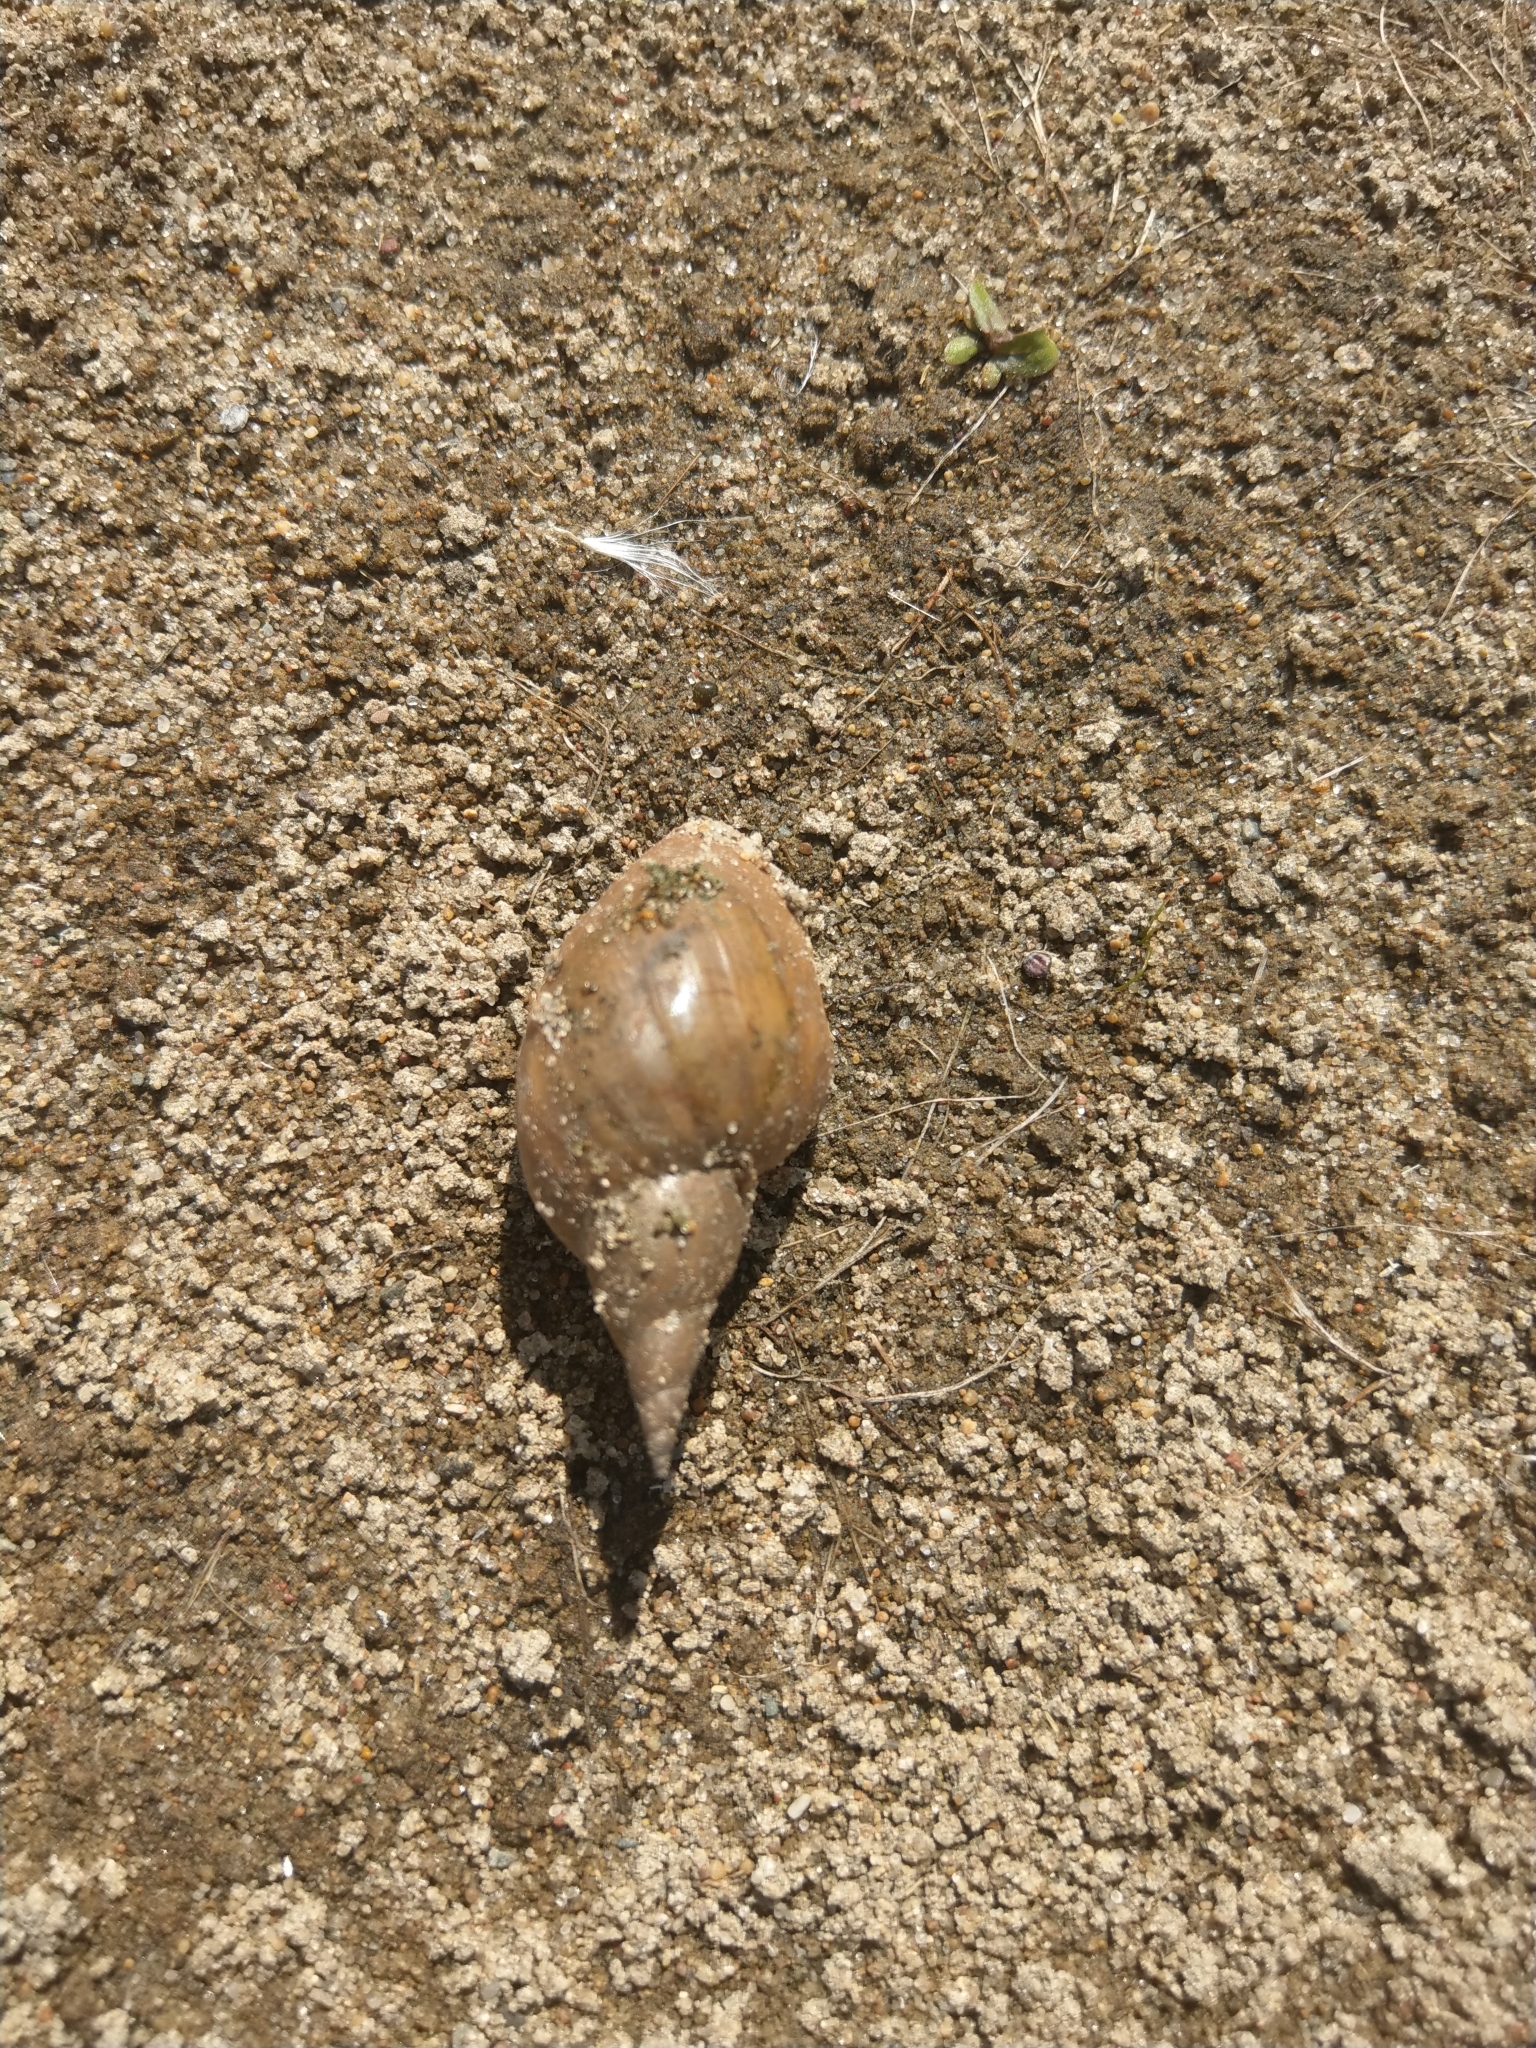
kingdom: Animalia
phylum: Mollusca
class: Gastropoda
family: Lymnaeidae
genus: Lymnaea
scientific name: Lymnaea stagnalis
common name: Great pond snail
